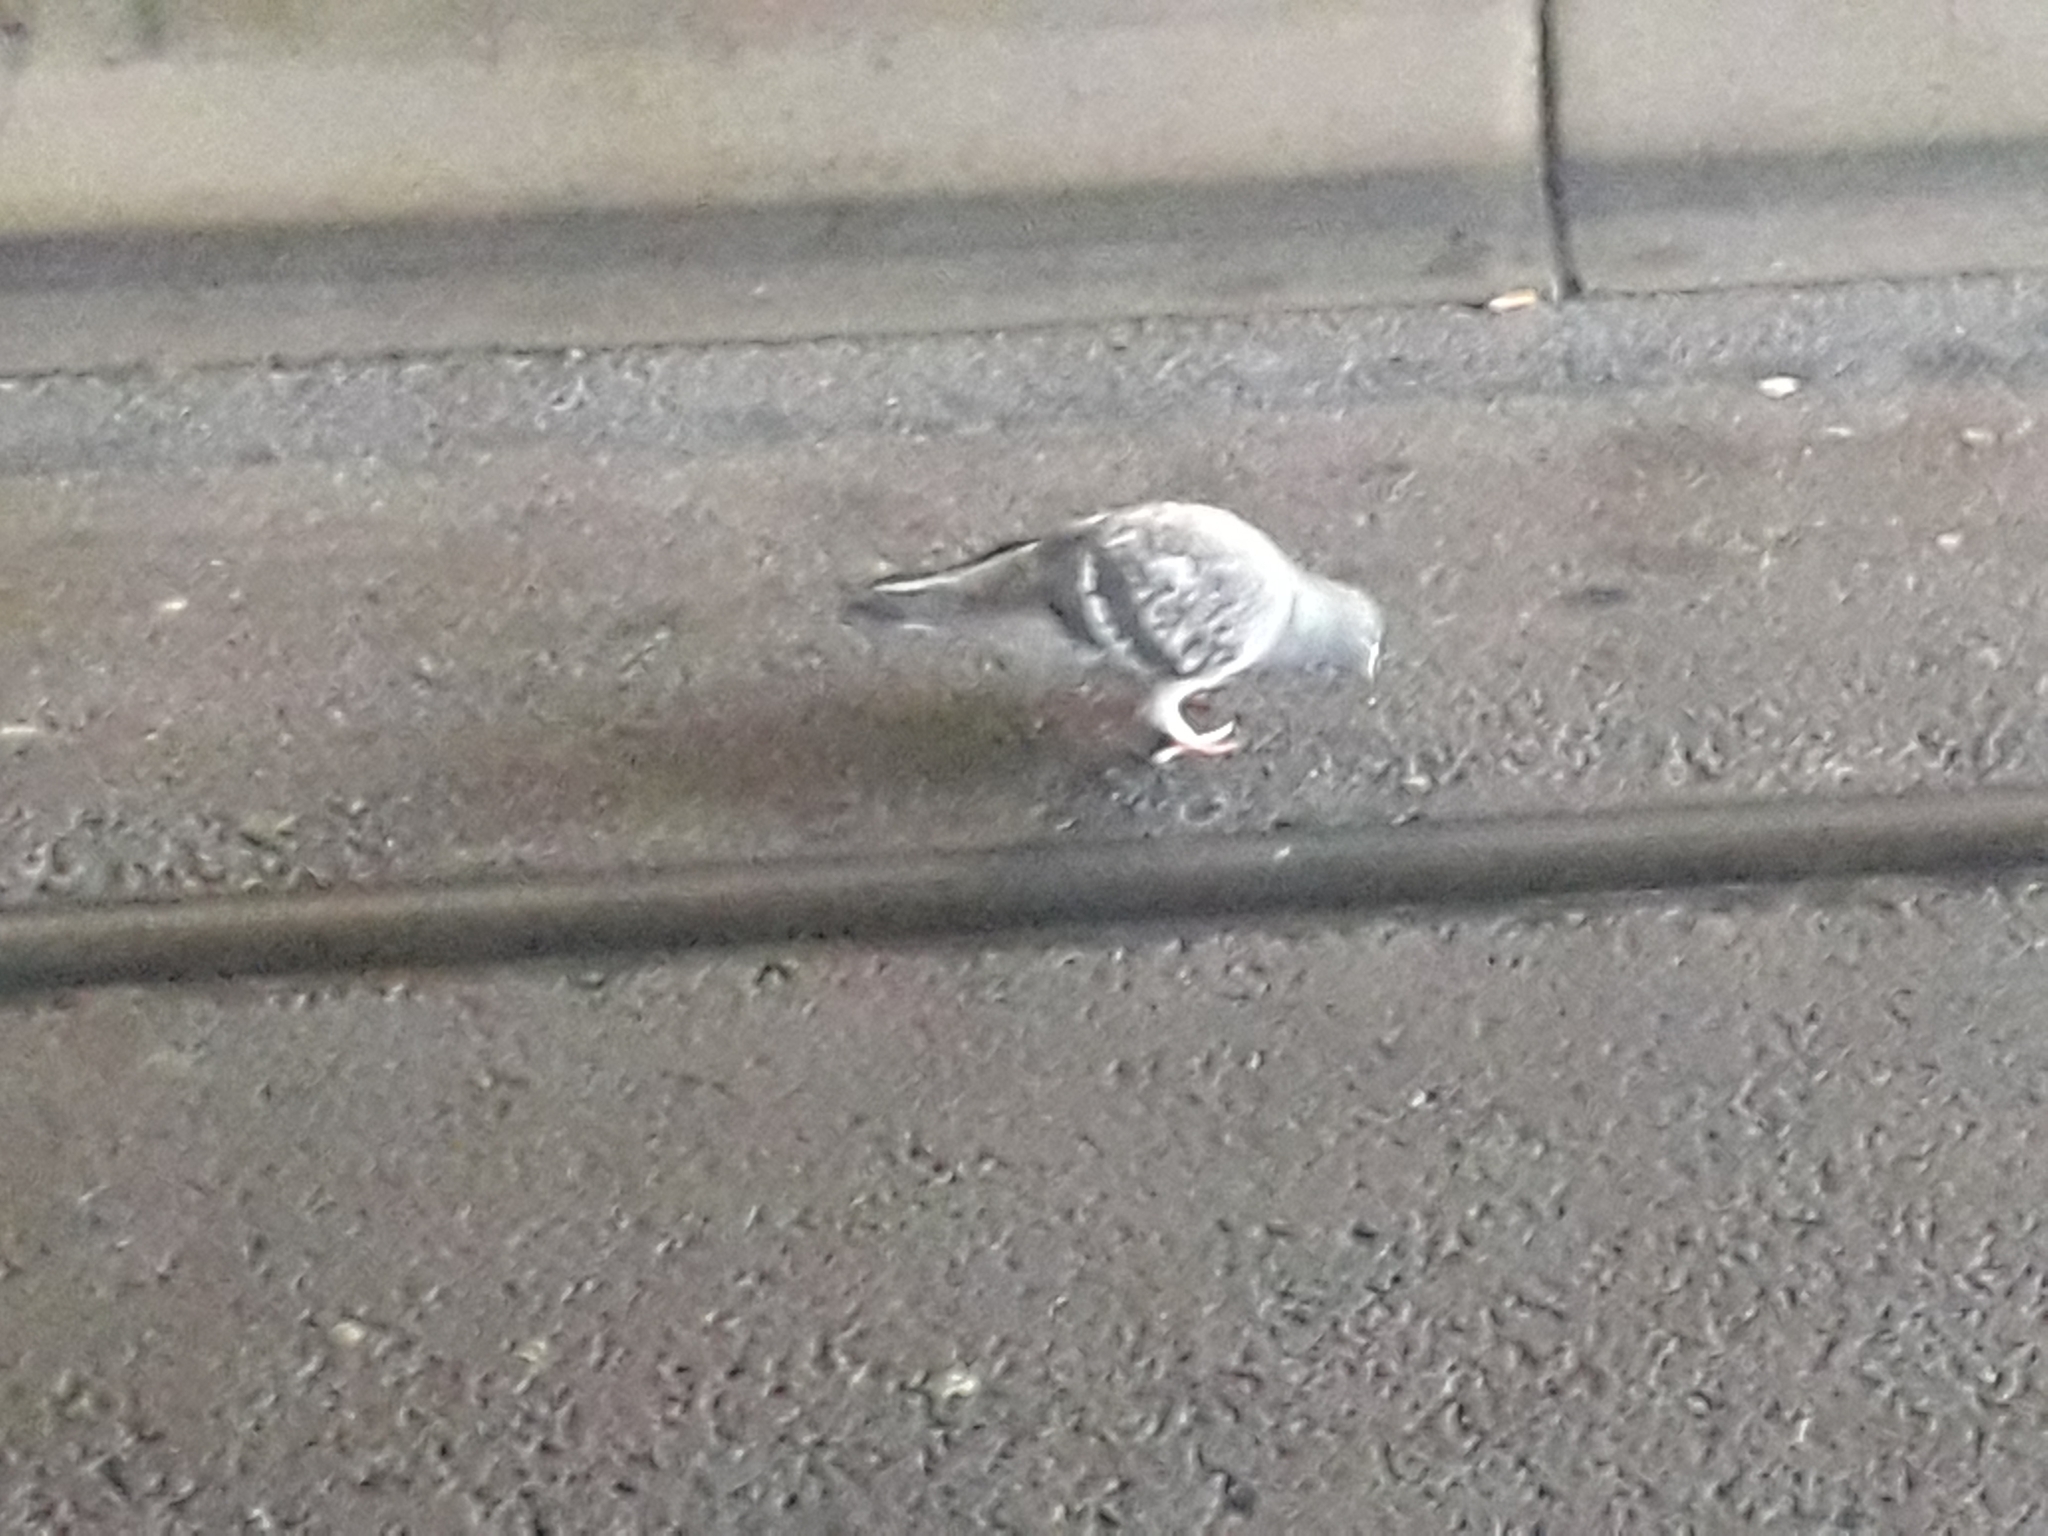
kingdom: Animalia
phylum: Chordata
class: Aves
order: Columbiformes
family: Columbidae
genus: Columba
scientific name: Columba livia
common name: Rock pigeon
